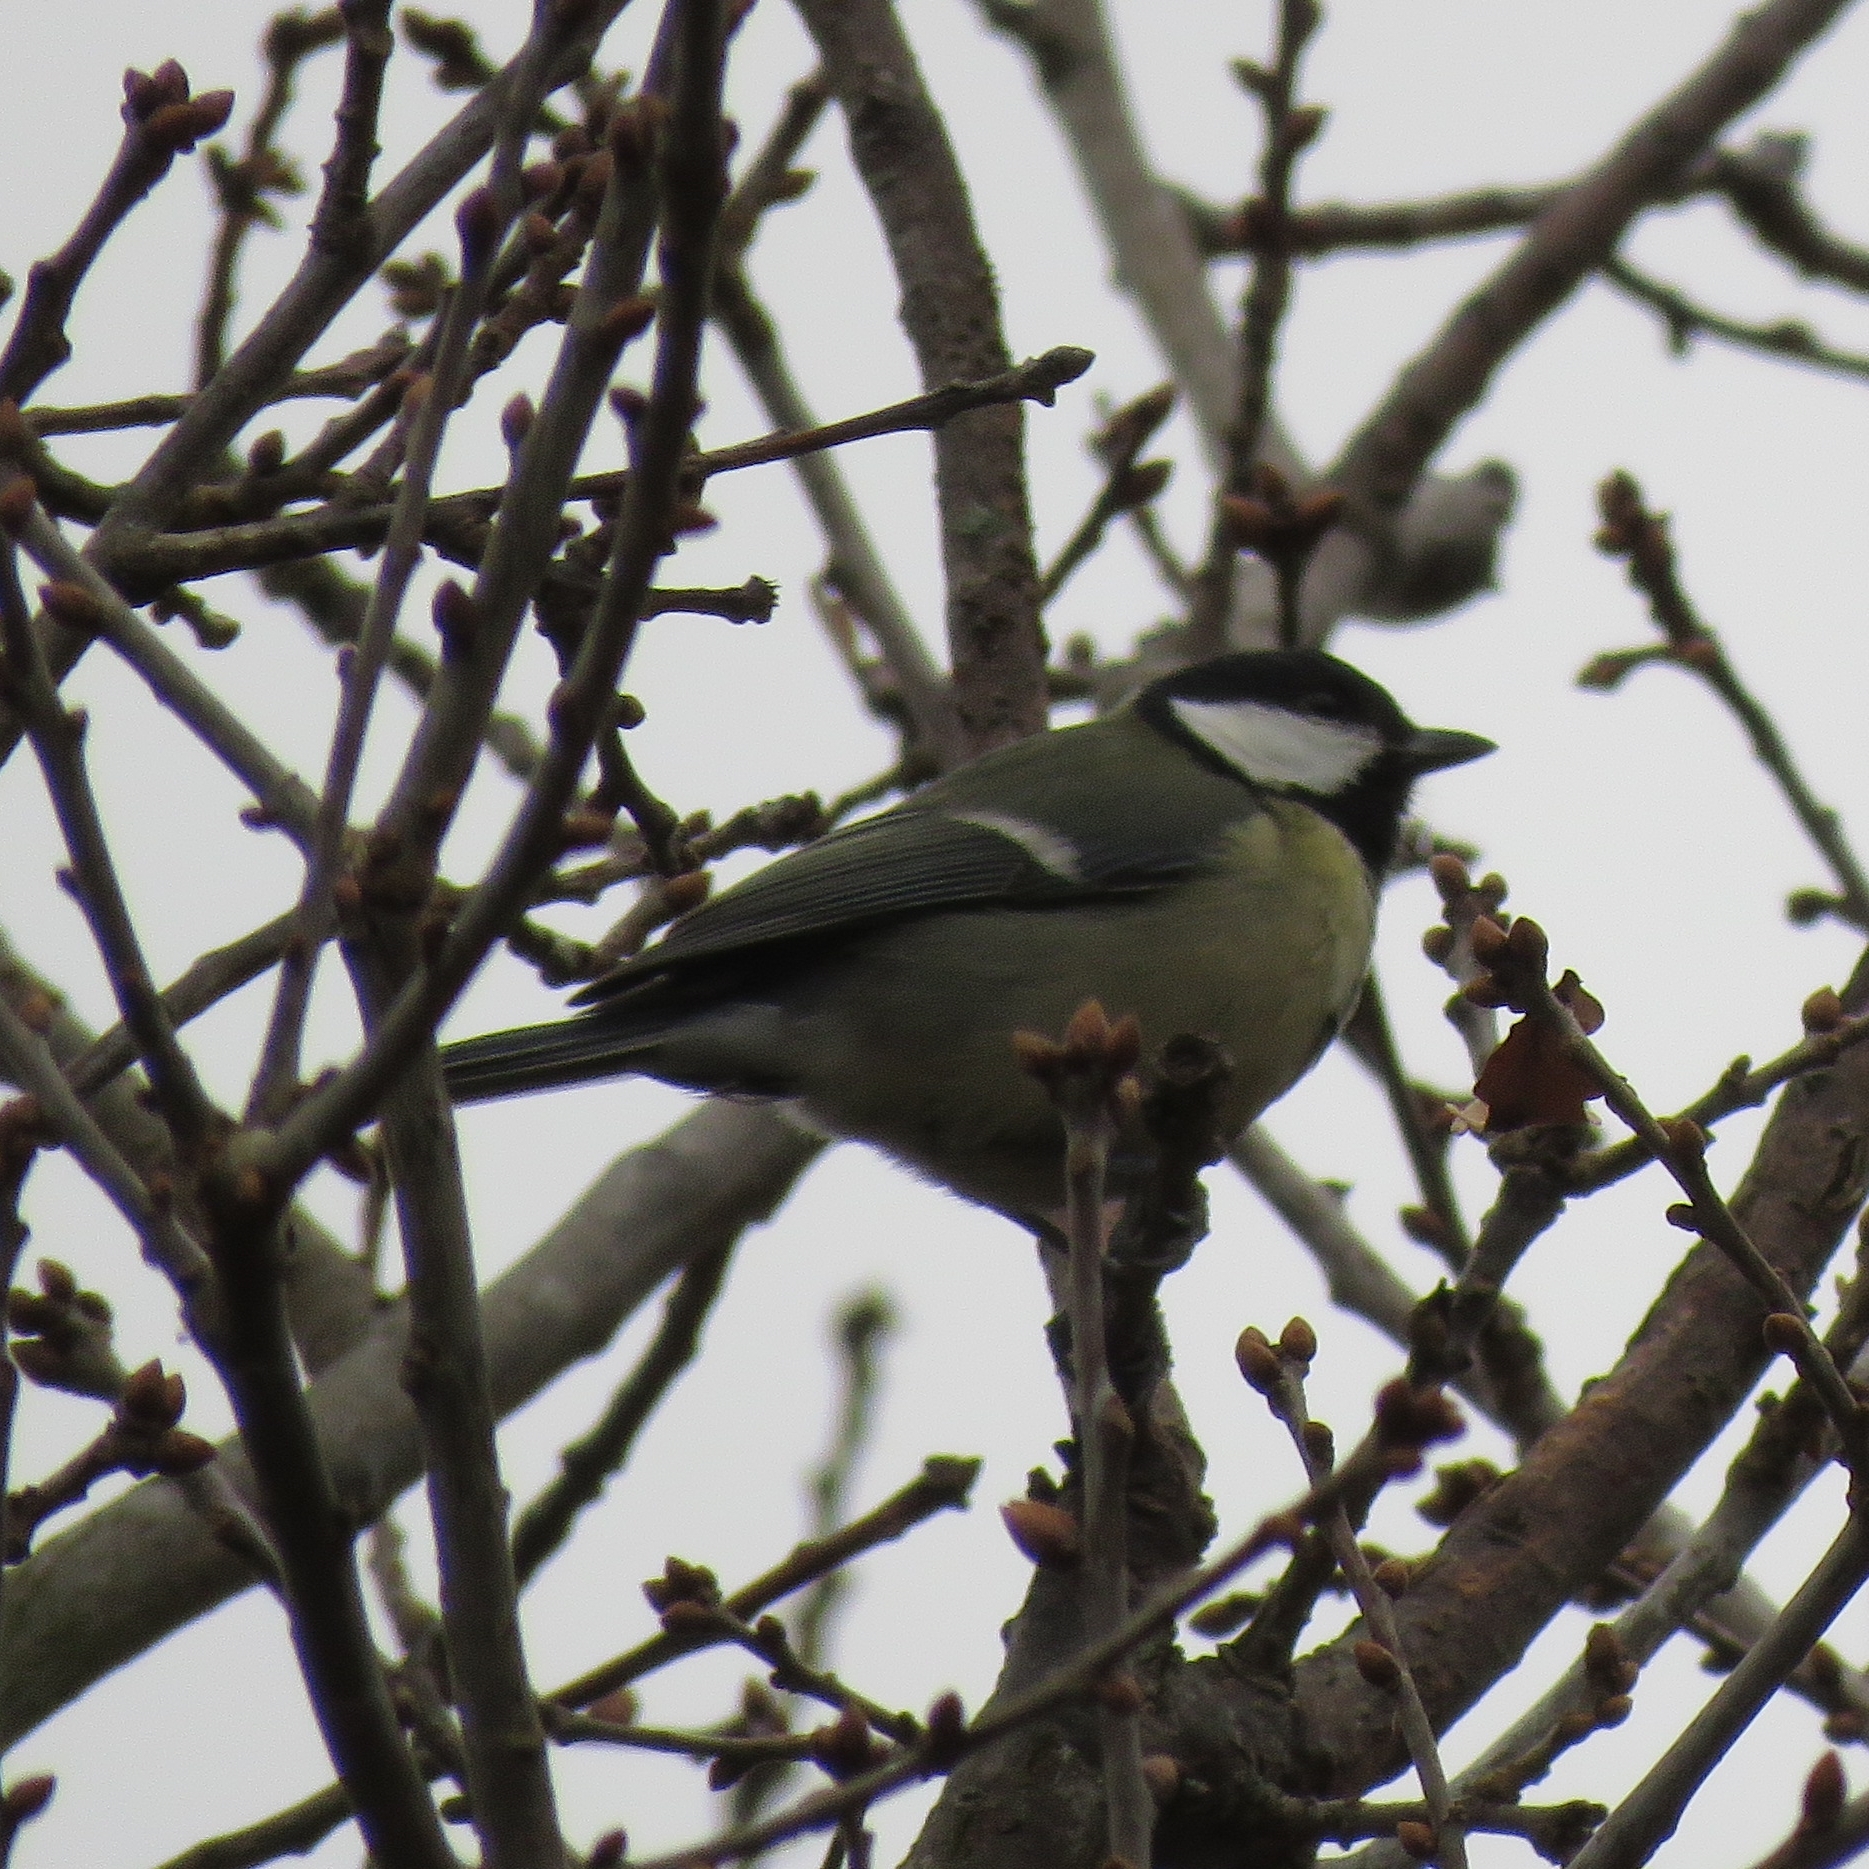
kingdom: Animalia
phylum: Chordata
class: Aves
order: Passeriformes
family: Paridae
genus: Parus
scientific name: Parus major
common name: Great tit
